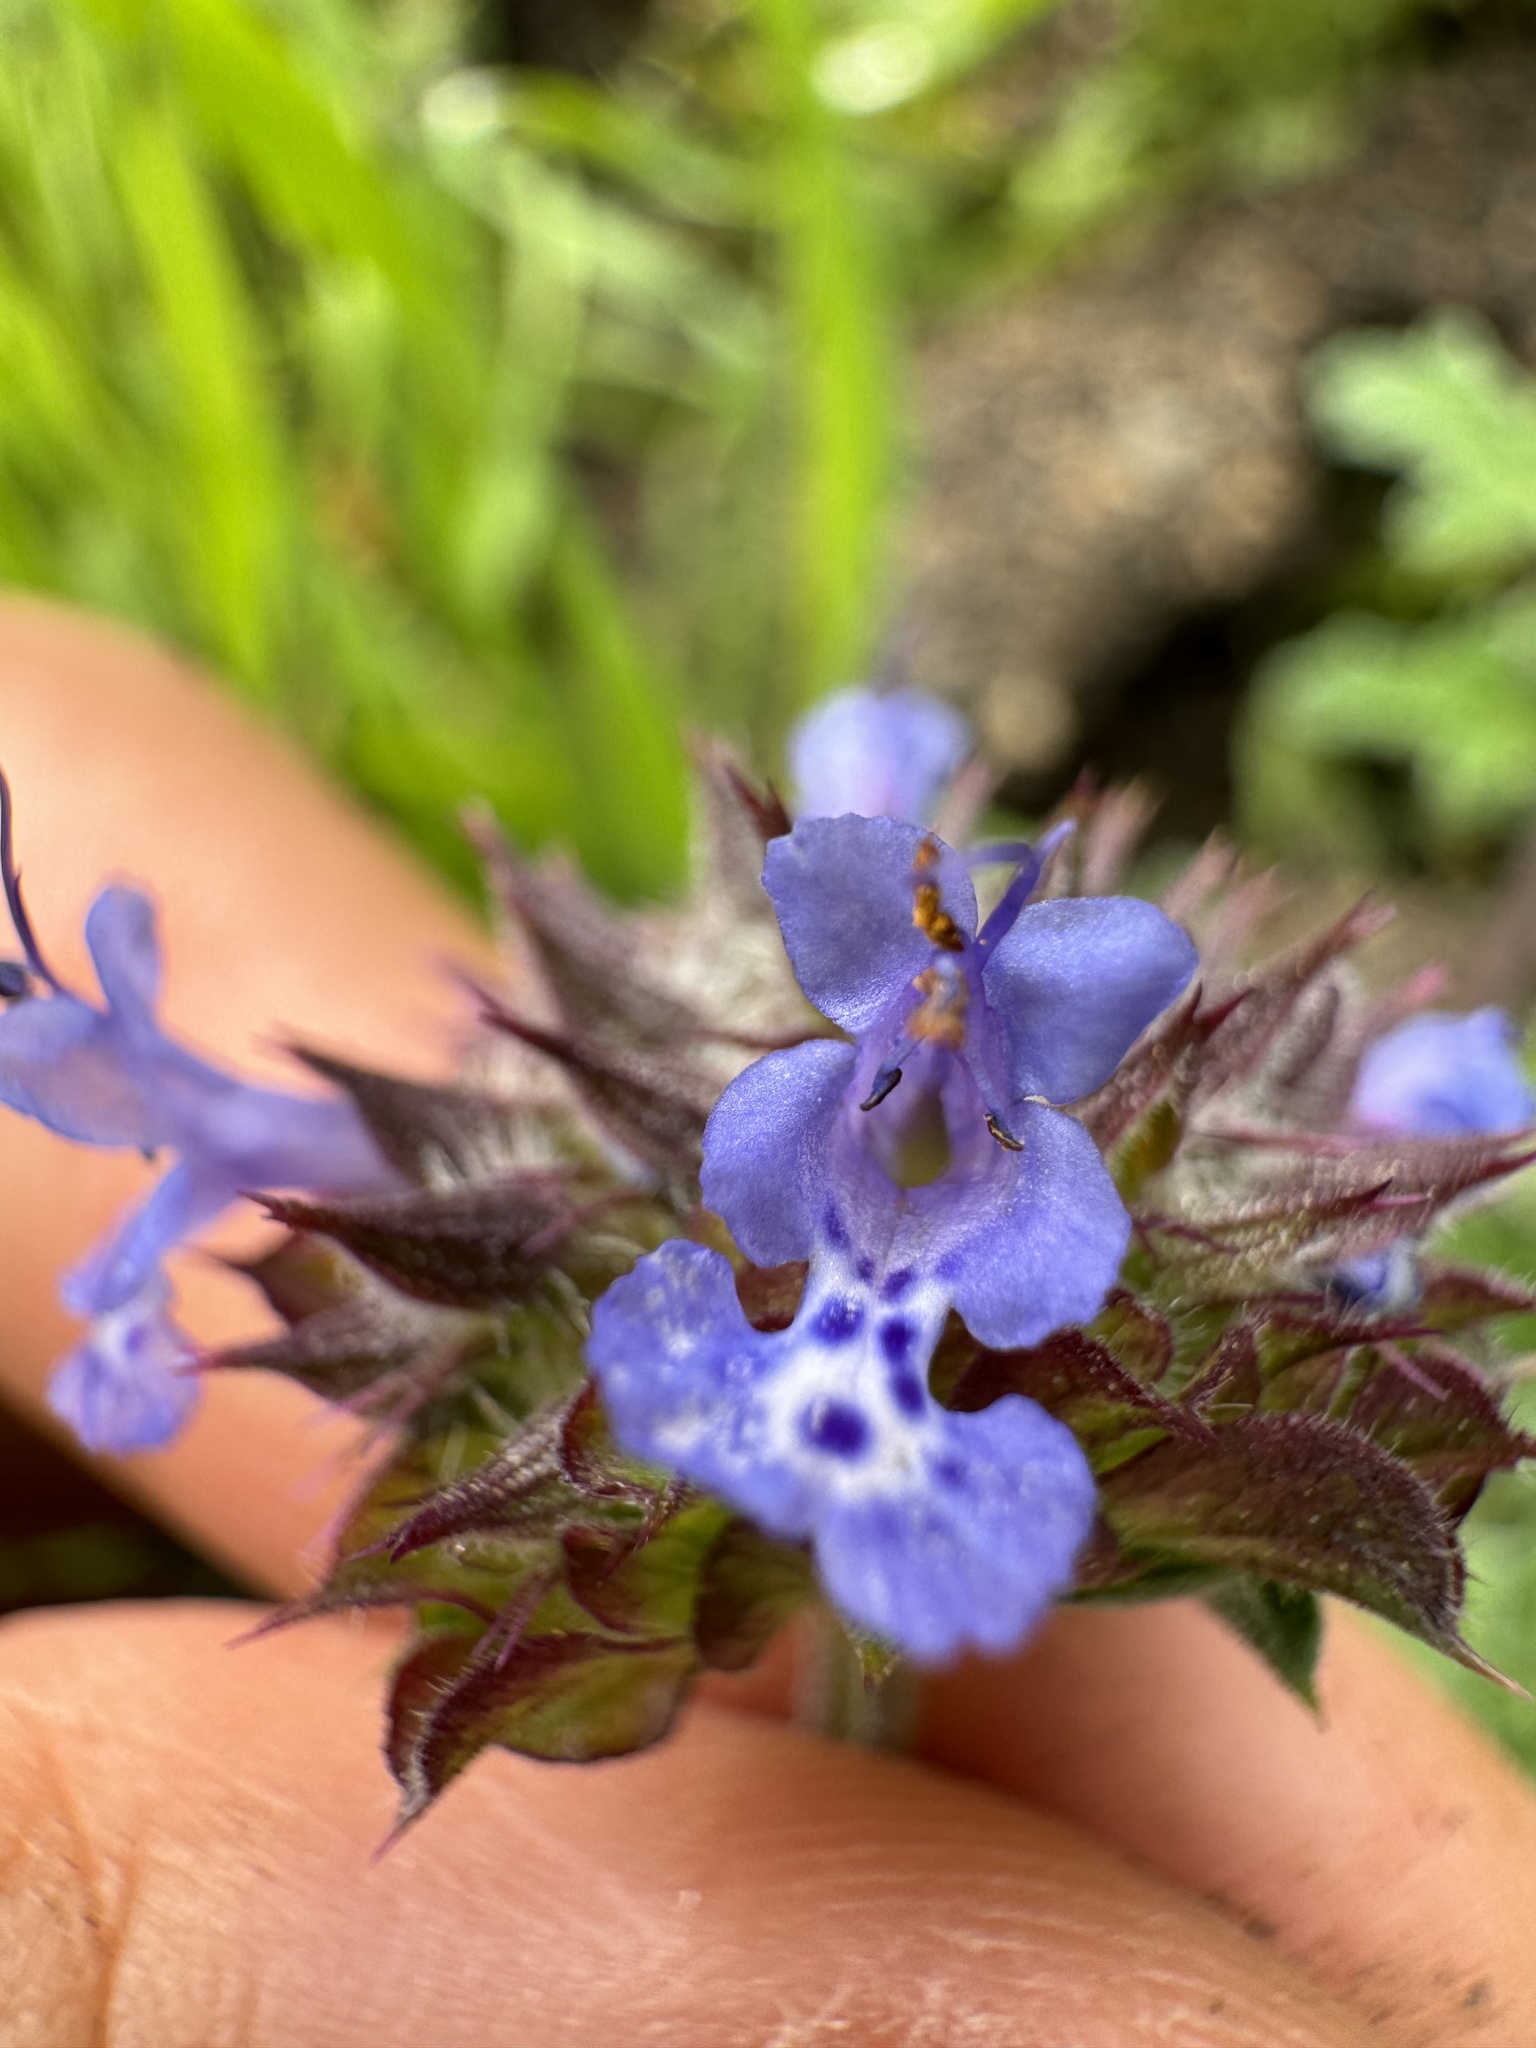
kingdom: Plantae
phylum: Tracheophyta
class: Magnoliopsida
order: Lamiales
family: Lamiaceae
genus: Salvia
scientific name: Salvia columbariae
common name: Chia
